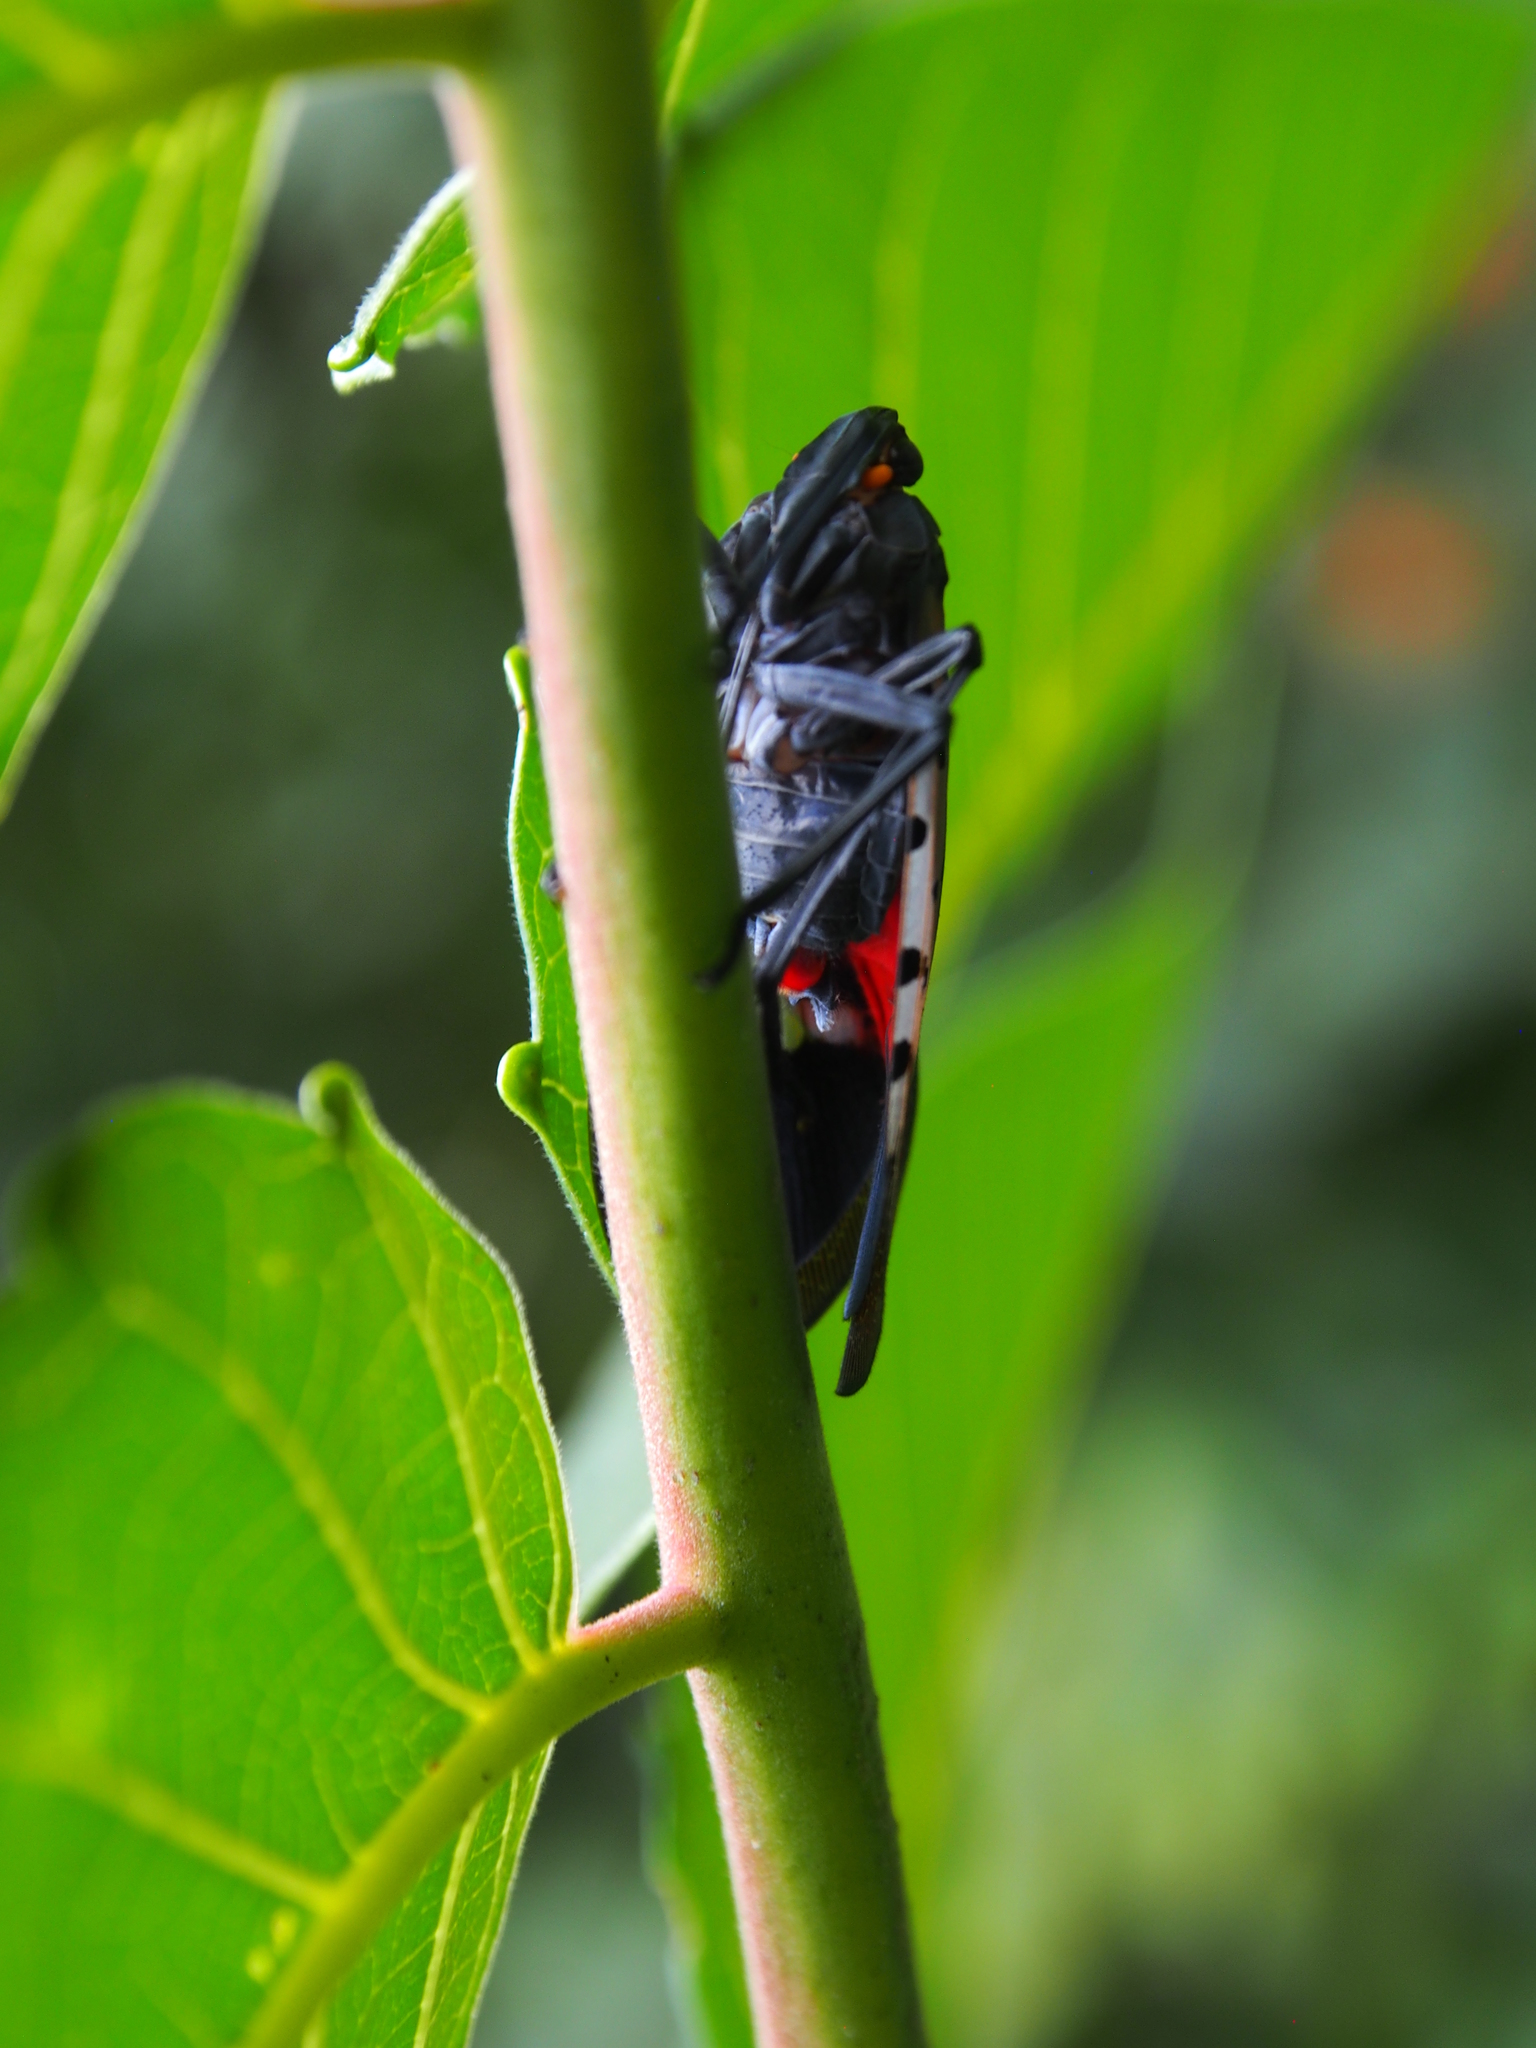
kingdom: Animalia
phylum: Arthropoda
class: Insecta
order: Hemiptera
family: Fulgoridae
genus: Lycorma
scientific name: Lycorma delicatula
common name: Spotted lanternfly
